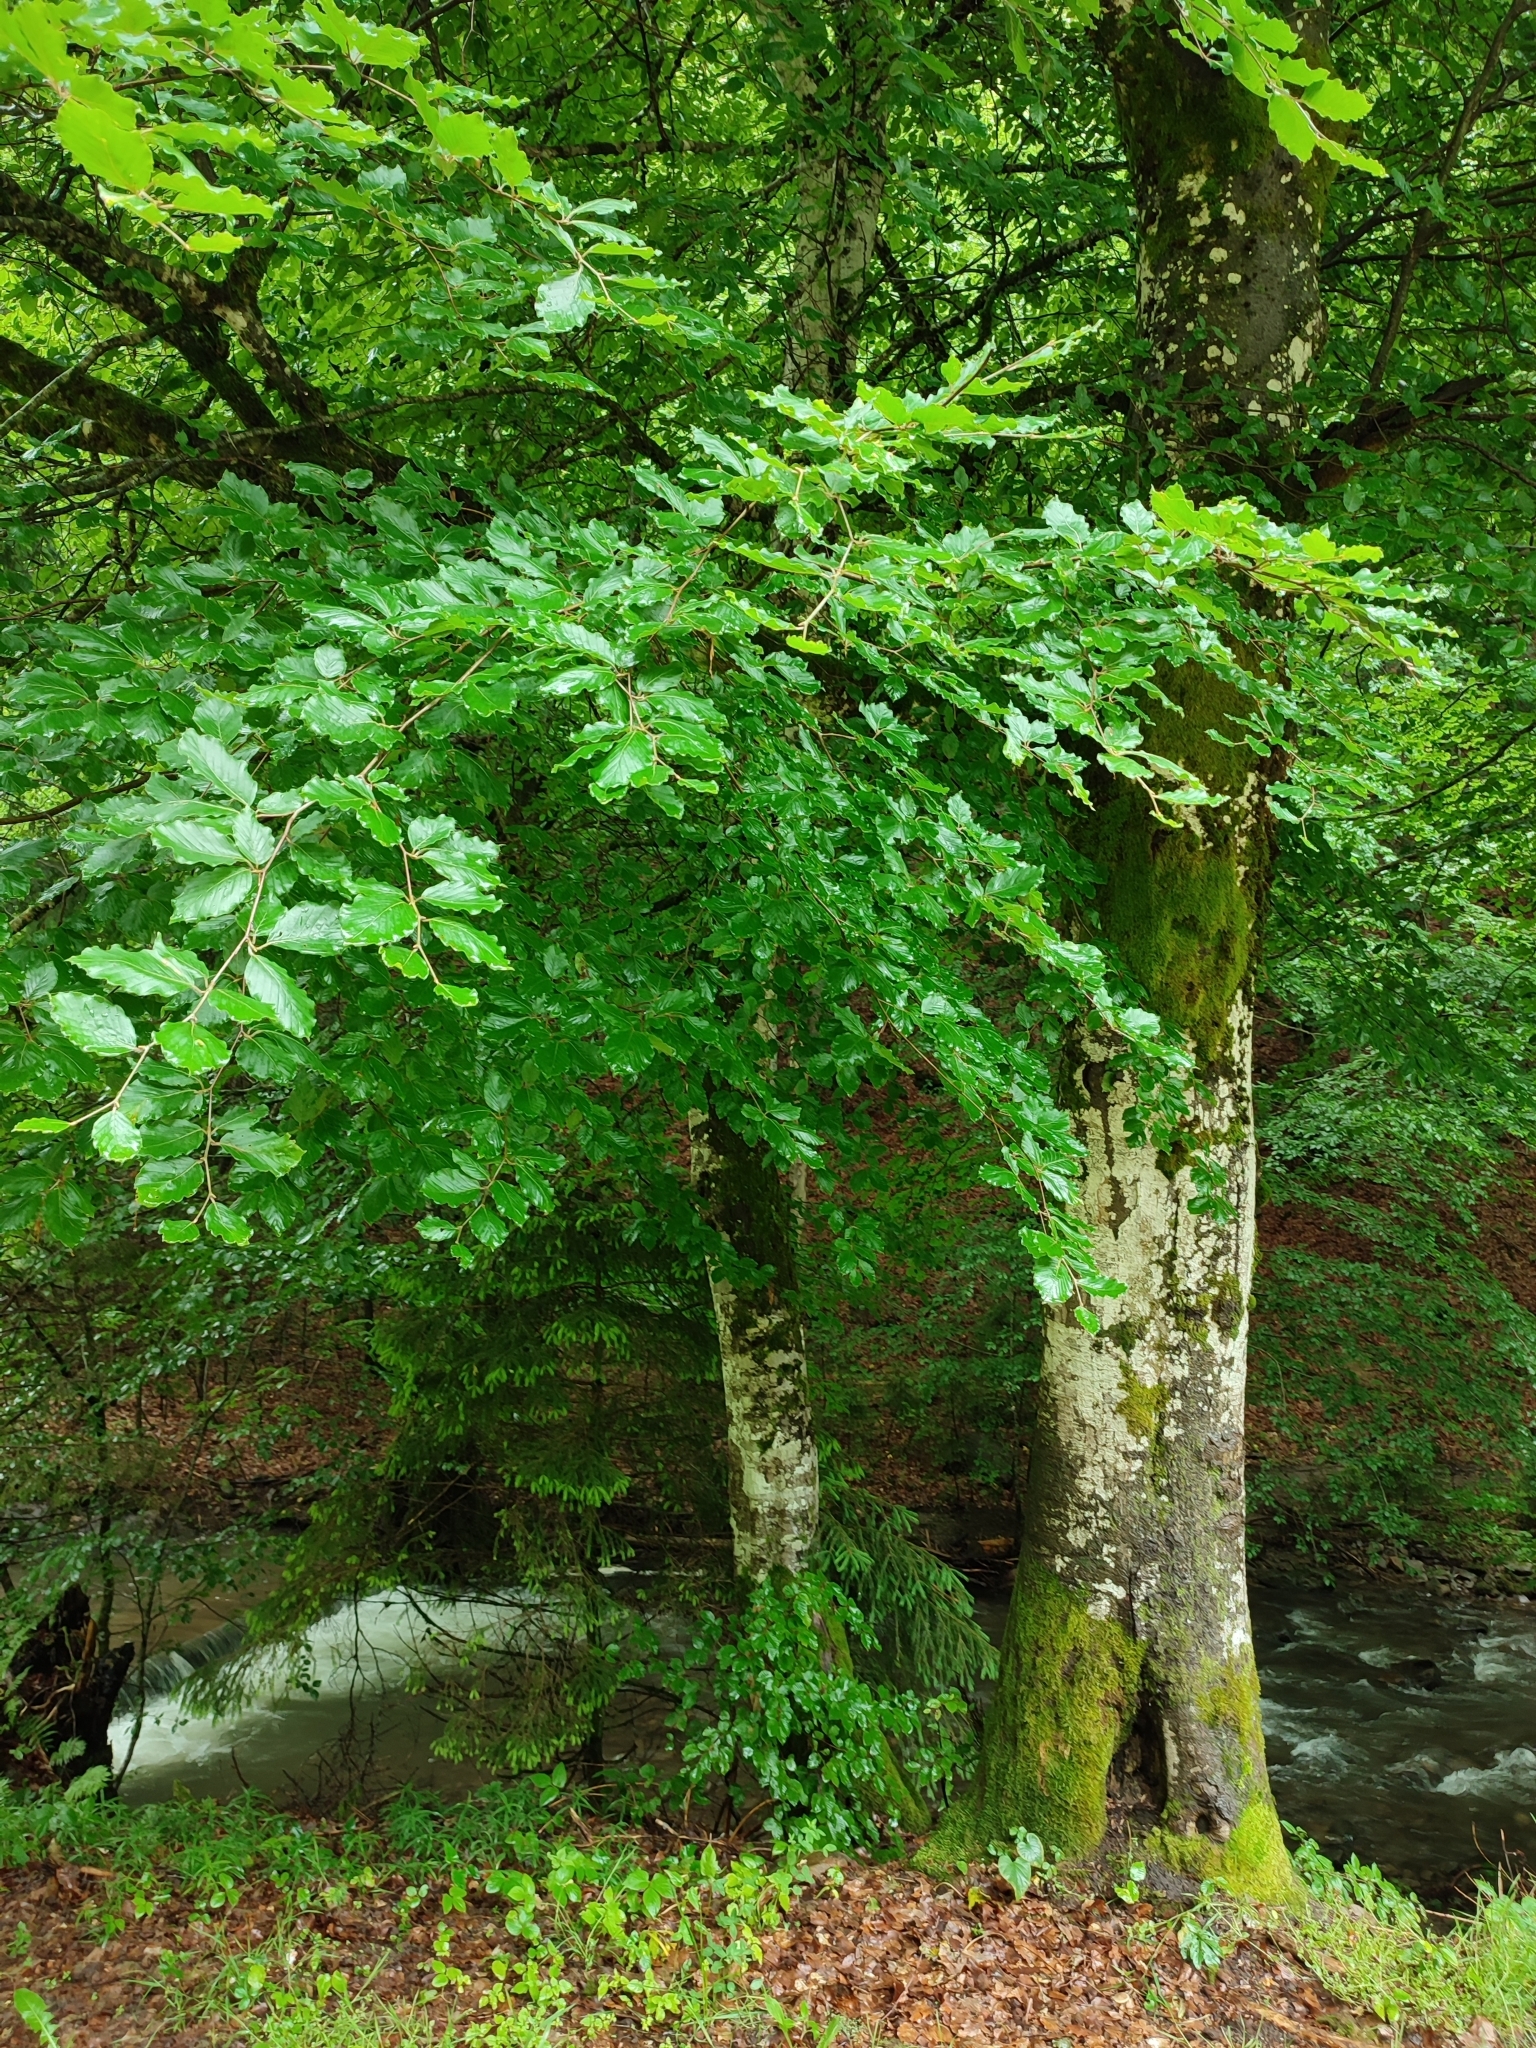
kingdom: Plantae
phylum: Tracheophyta
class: Magnoliopsida
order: Fagales
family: Fagaceae
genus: Fagus
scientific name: Fagus sylvatica
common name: Beech
